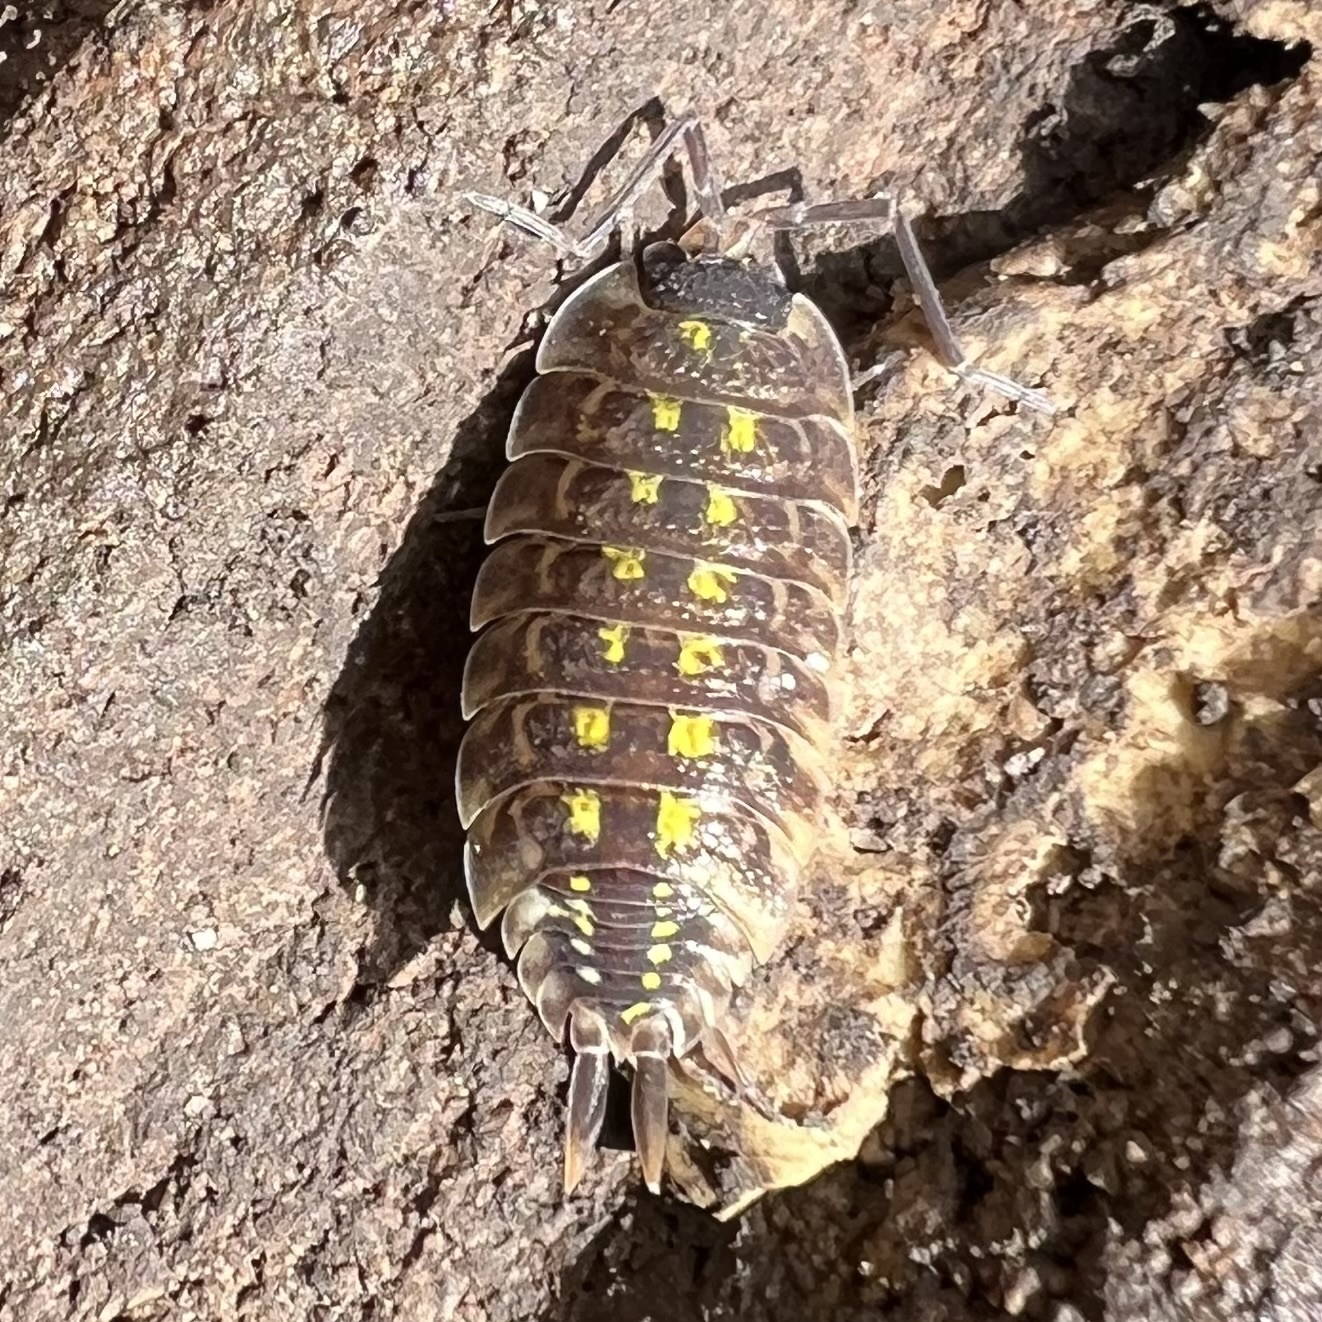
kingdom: Animalia
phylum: Arthropoda
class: Malacostraca
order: Isopoda
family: Porcellionidae
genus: Porcellio
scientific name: Porcellio spinicornis
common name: Painted woodlouse
